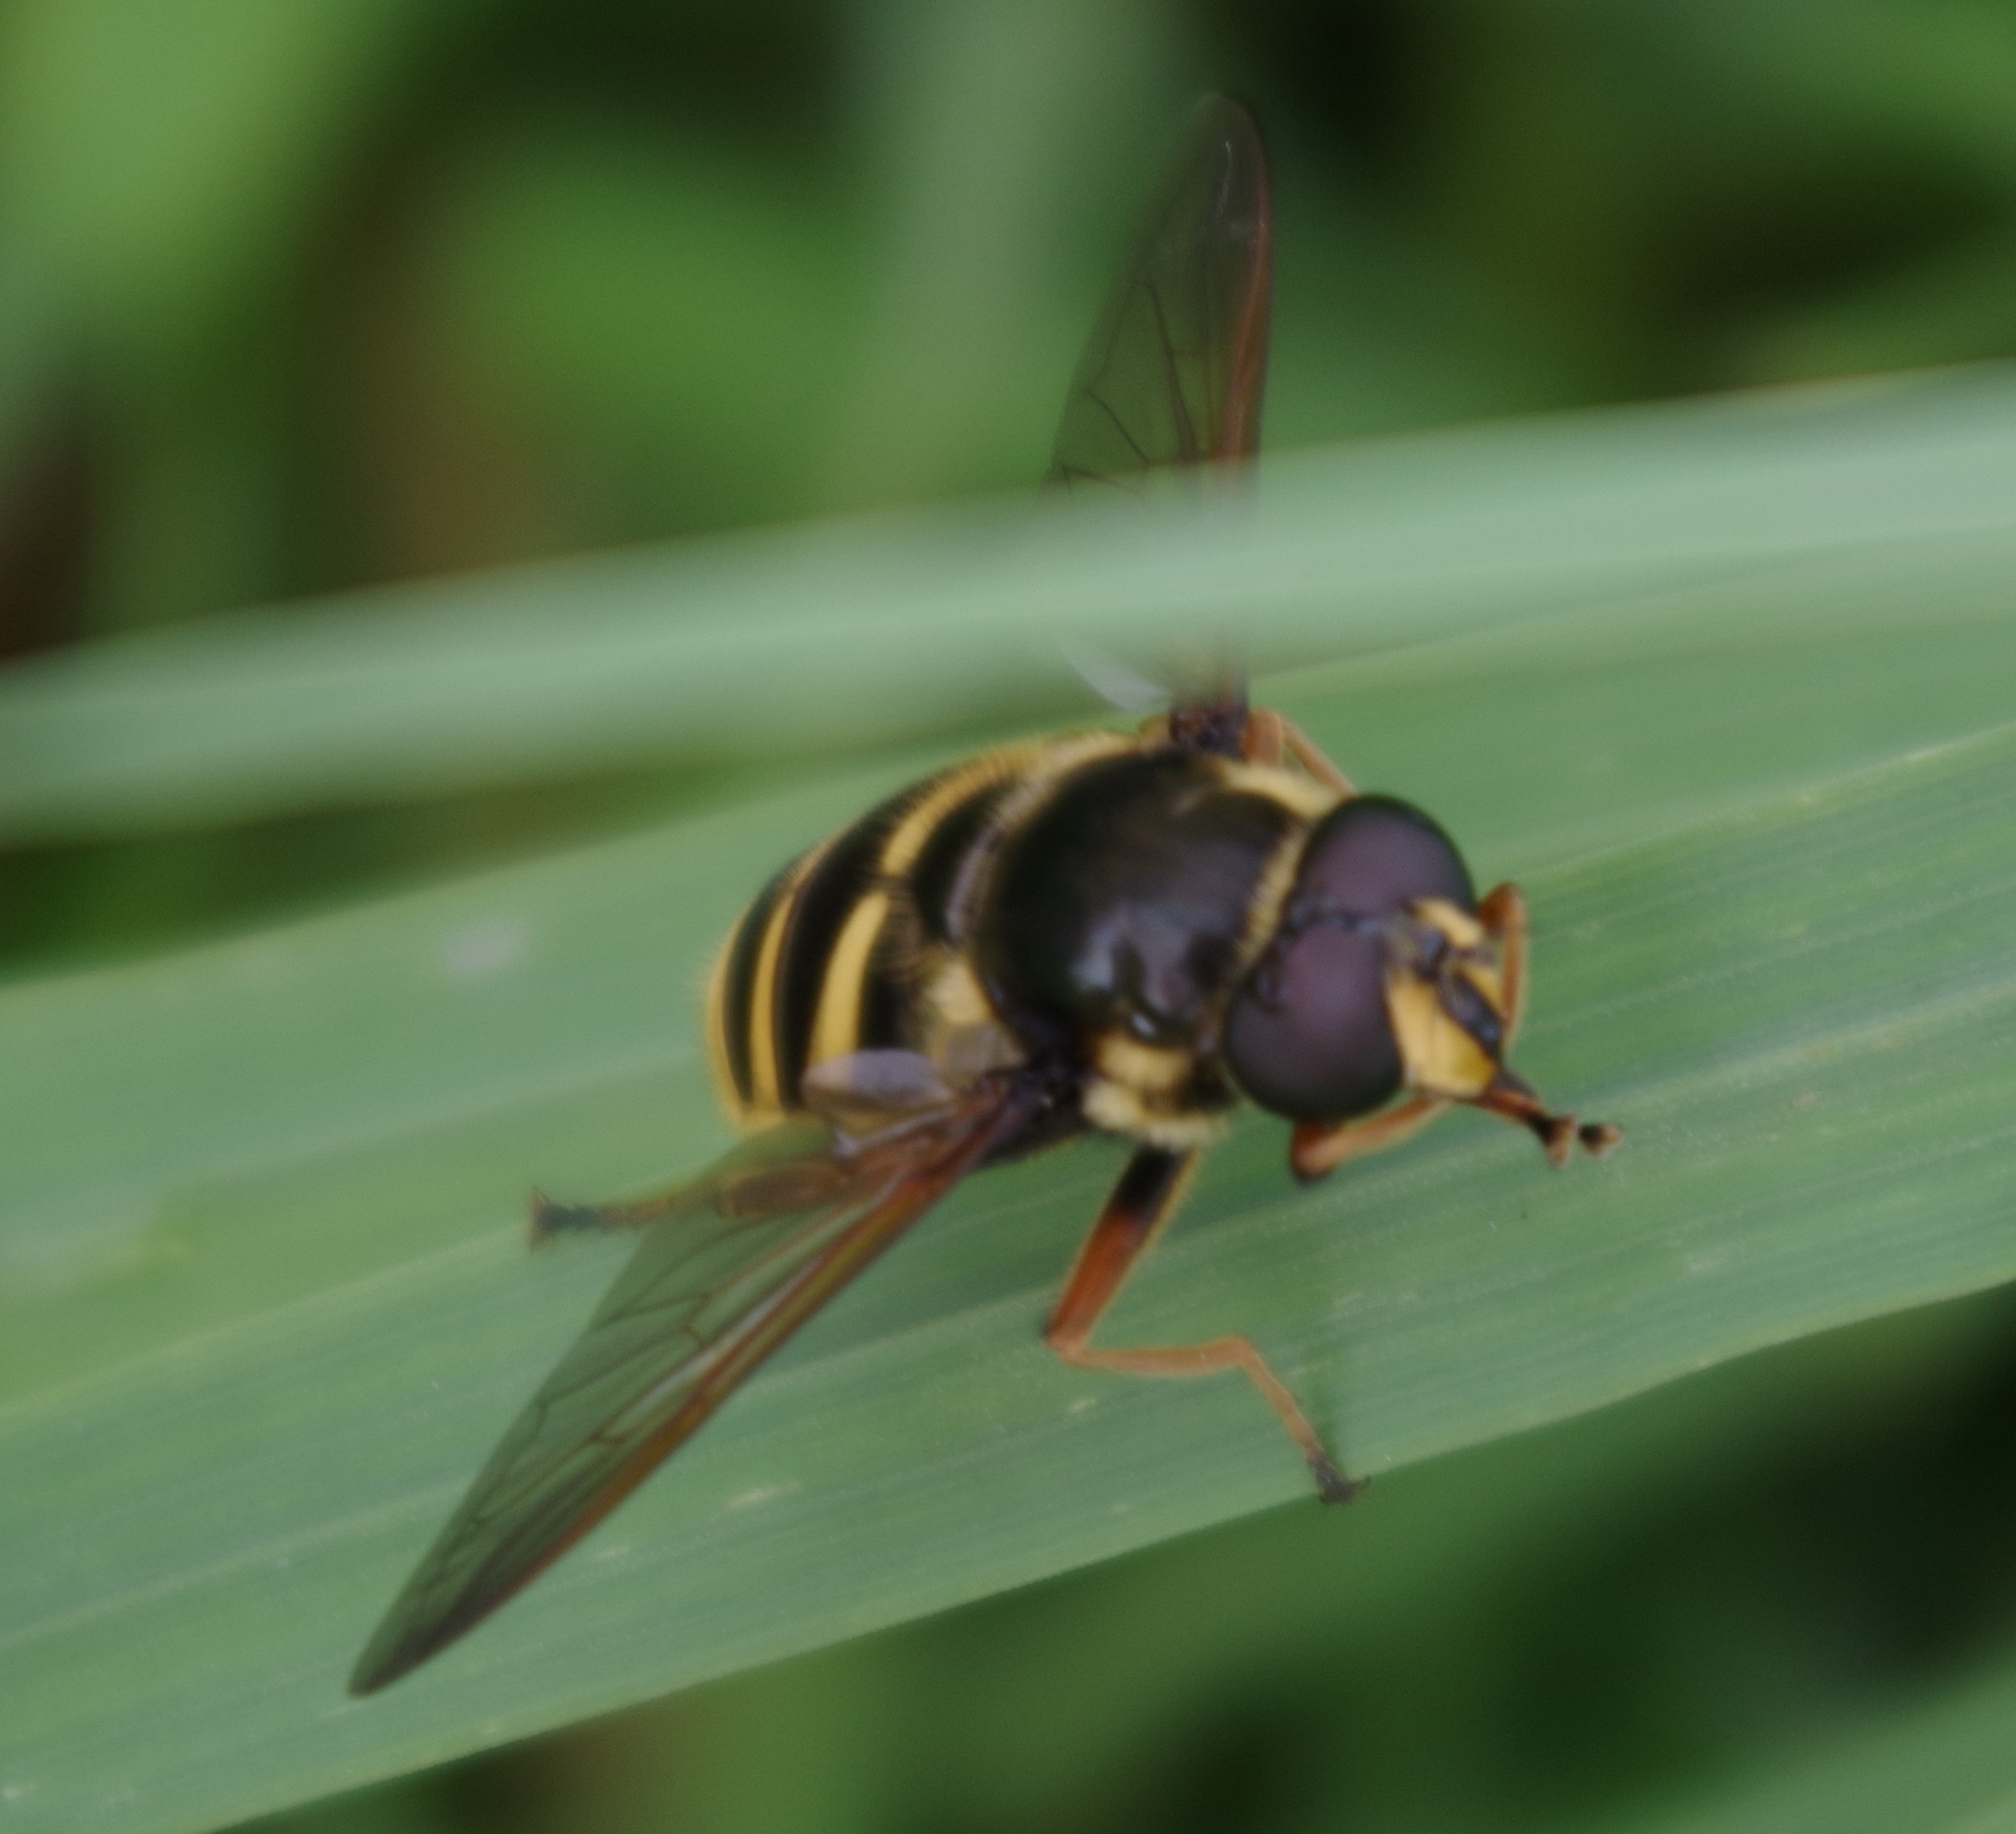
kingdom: Animalia
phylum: Arthropoda
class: Insecta
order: Diptera
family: Syrphidae
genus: Sericomyia
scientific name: Sericomyia silentis
